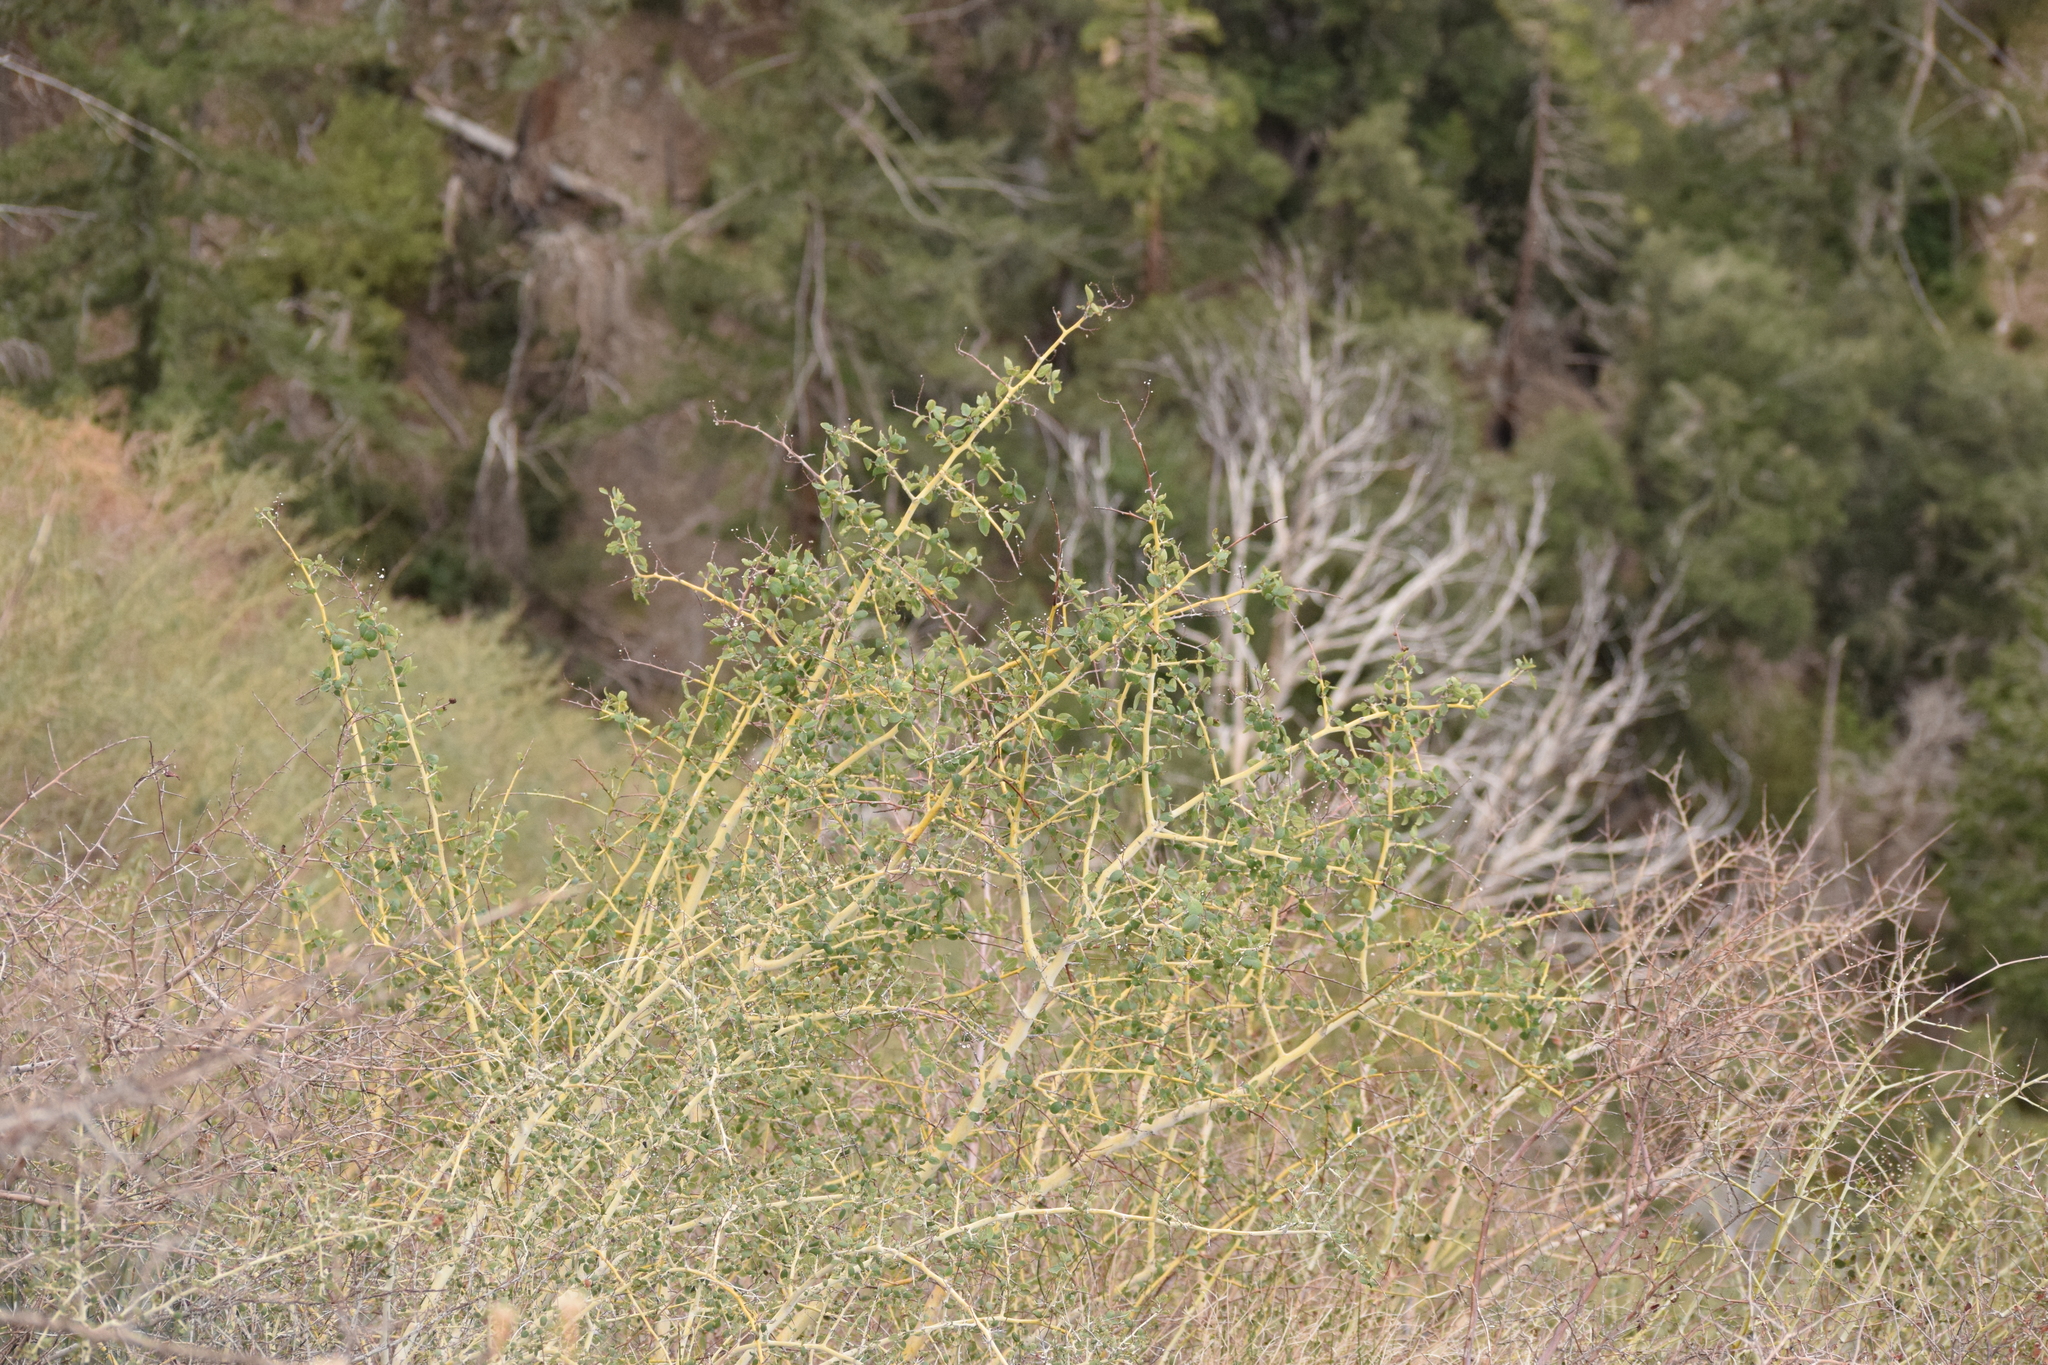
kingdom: Plantae
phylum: Tracheophyta
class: Magnoliopsida
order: Rosales
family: Rhamnaceae
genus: Ceanothus
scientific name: Ceanothus leucodermis
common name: Chaparral whitethorn
